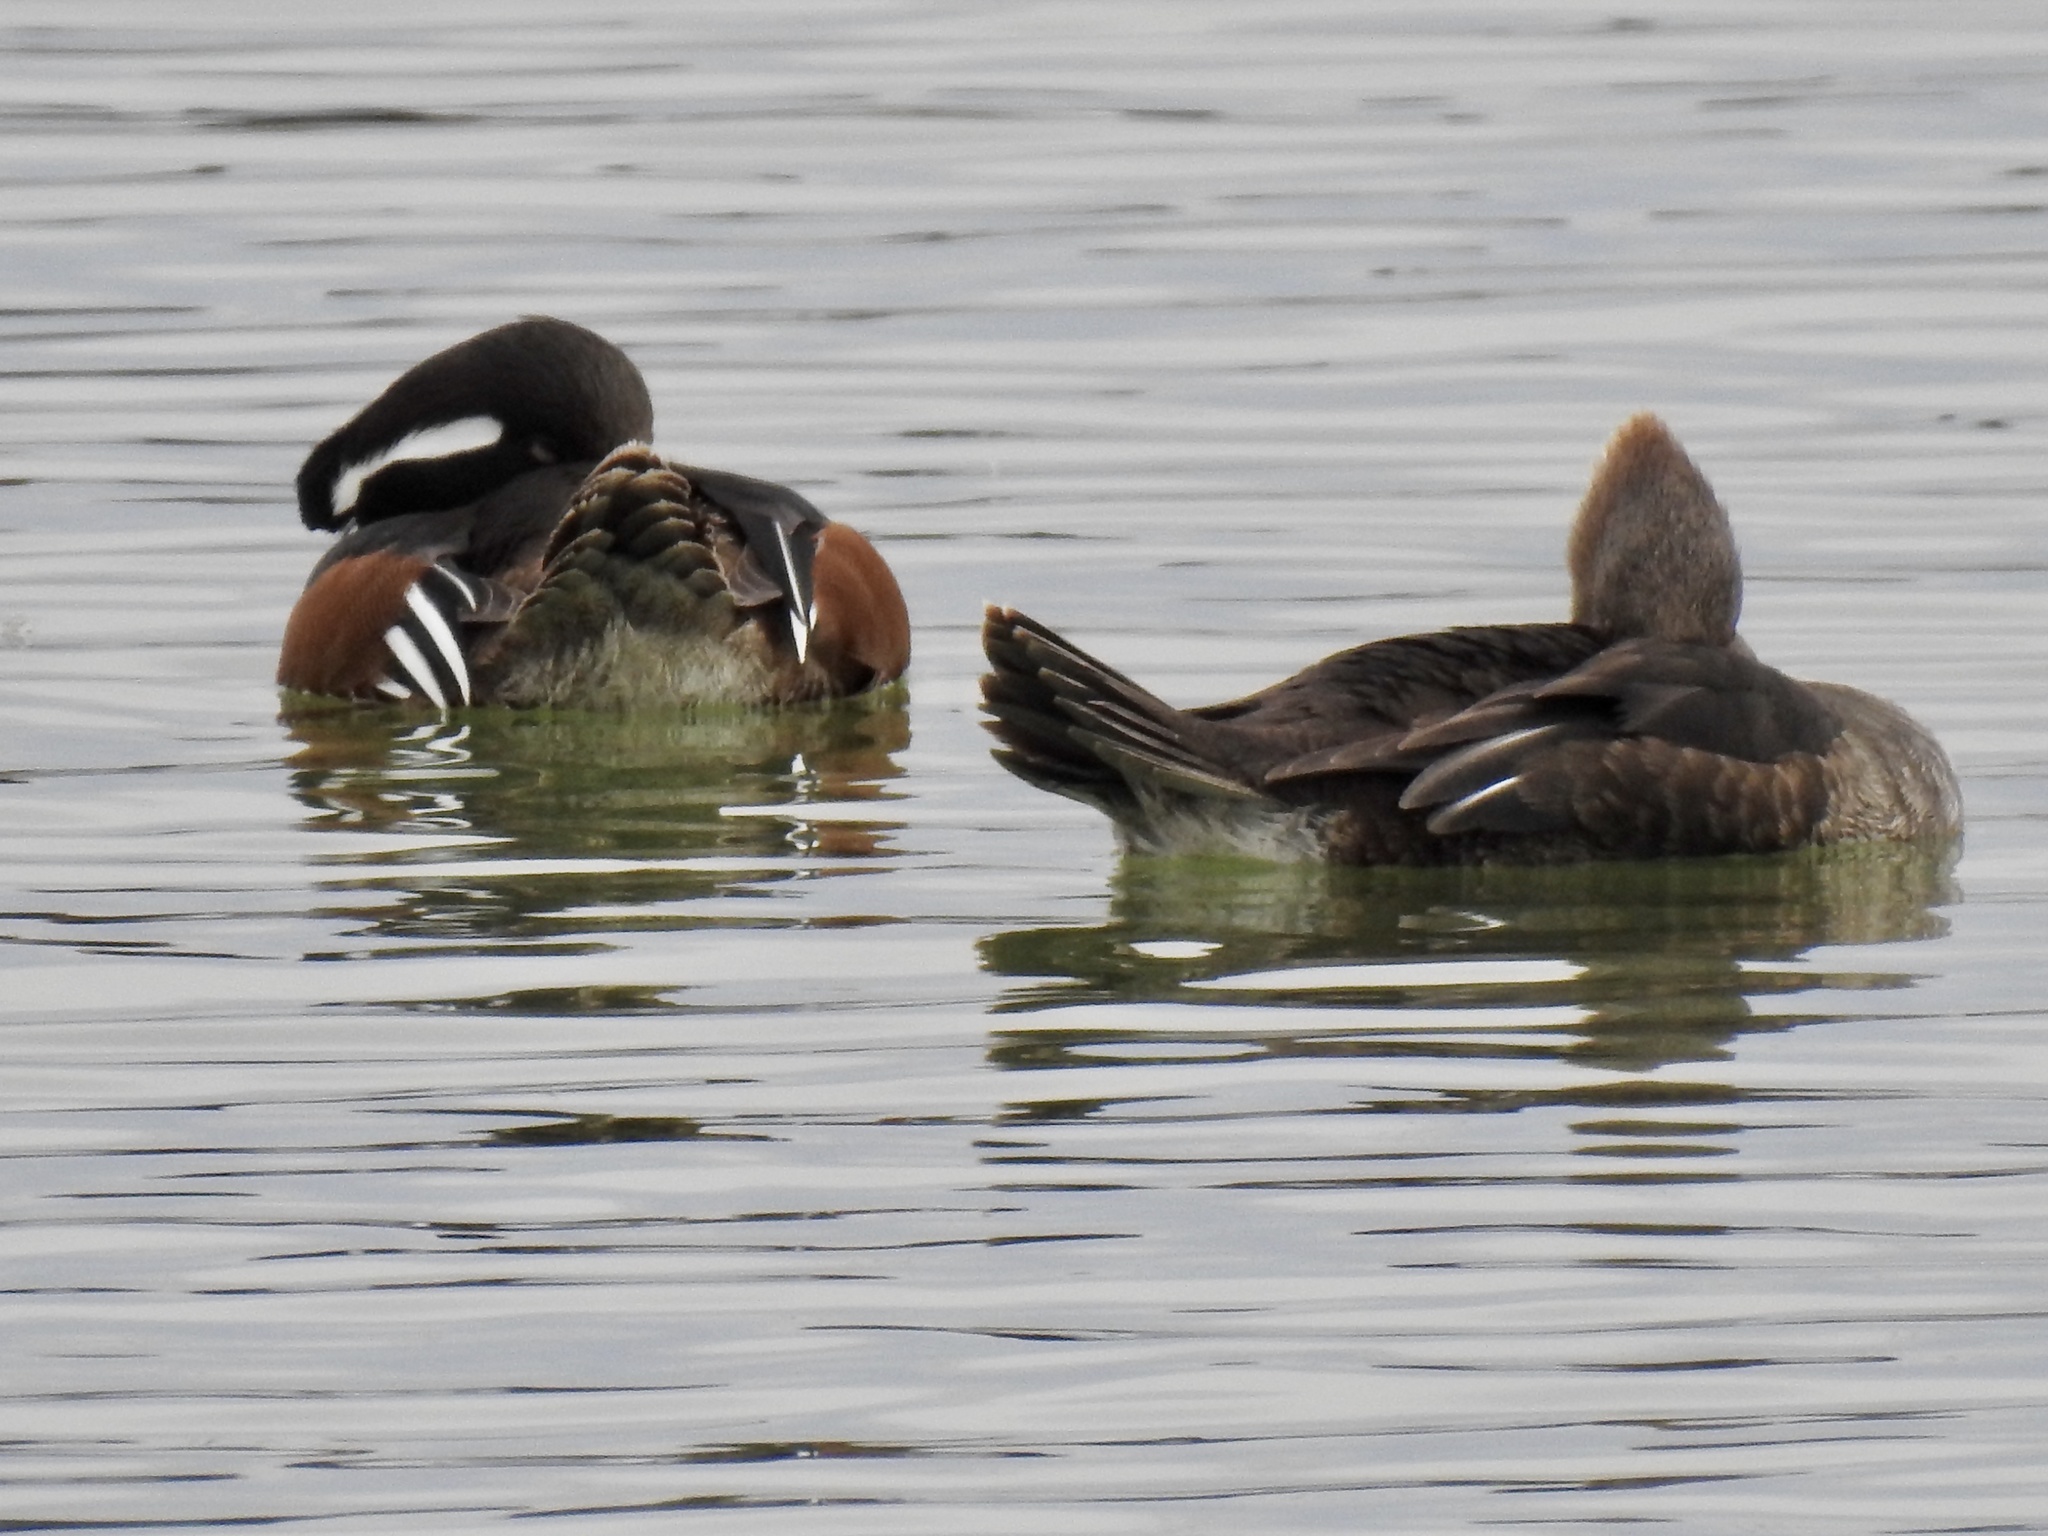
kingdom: Animalia
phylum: Chordata
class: Aves
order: Anseriformes
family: Anatidae
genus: Lophodytes
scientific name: Lophodytes cucullatus
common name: Hooded merganser
